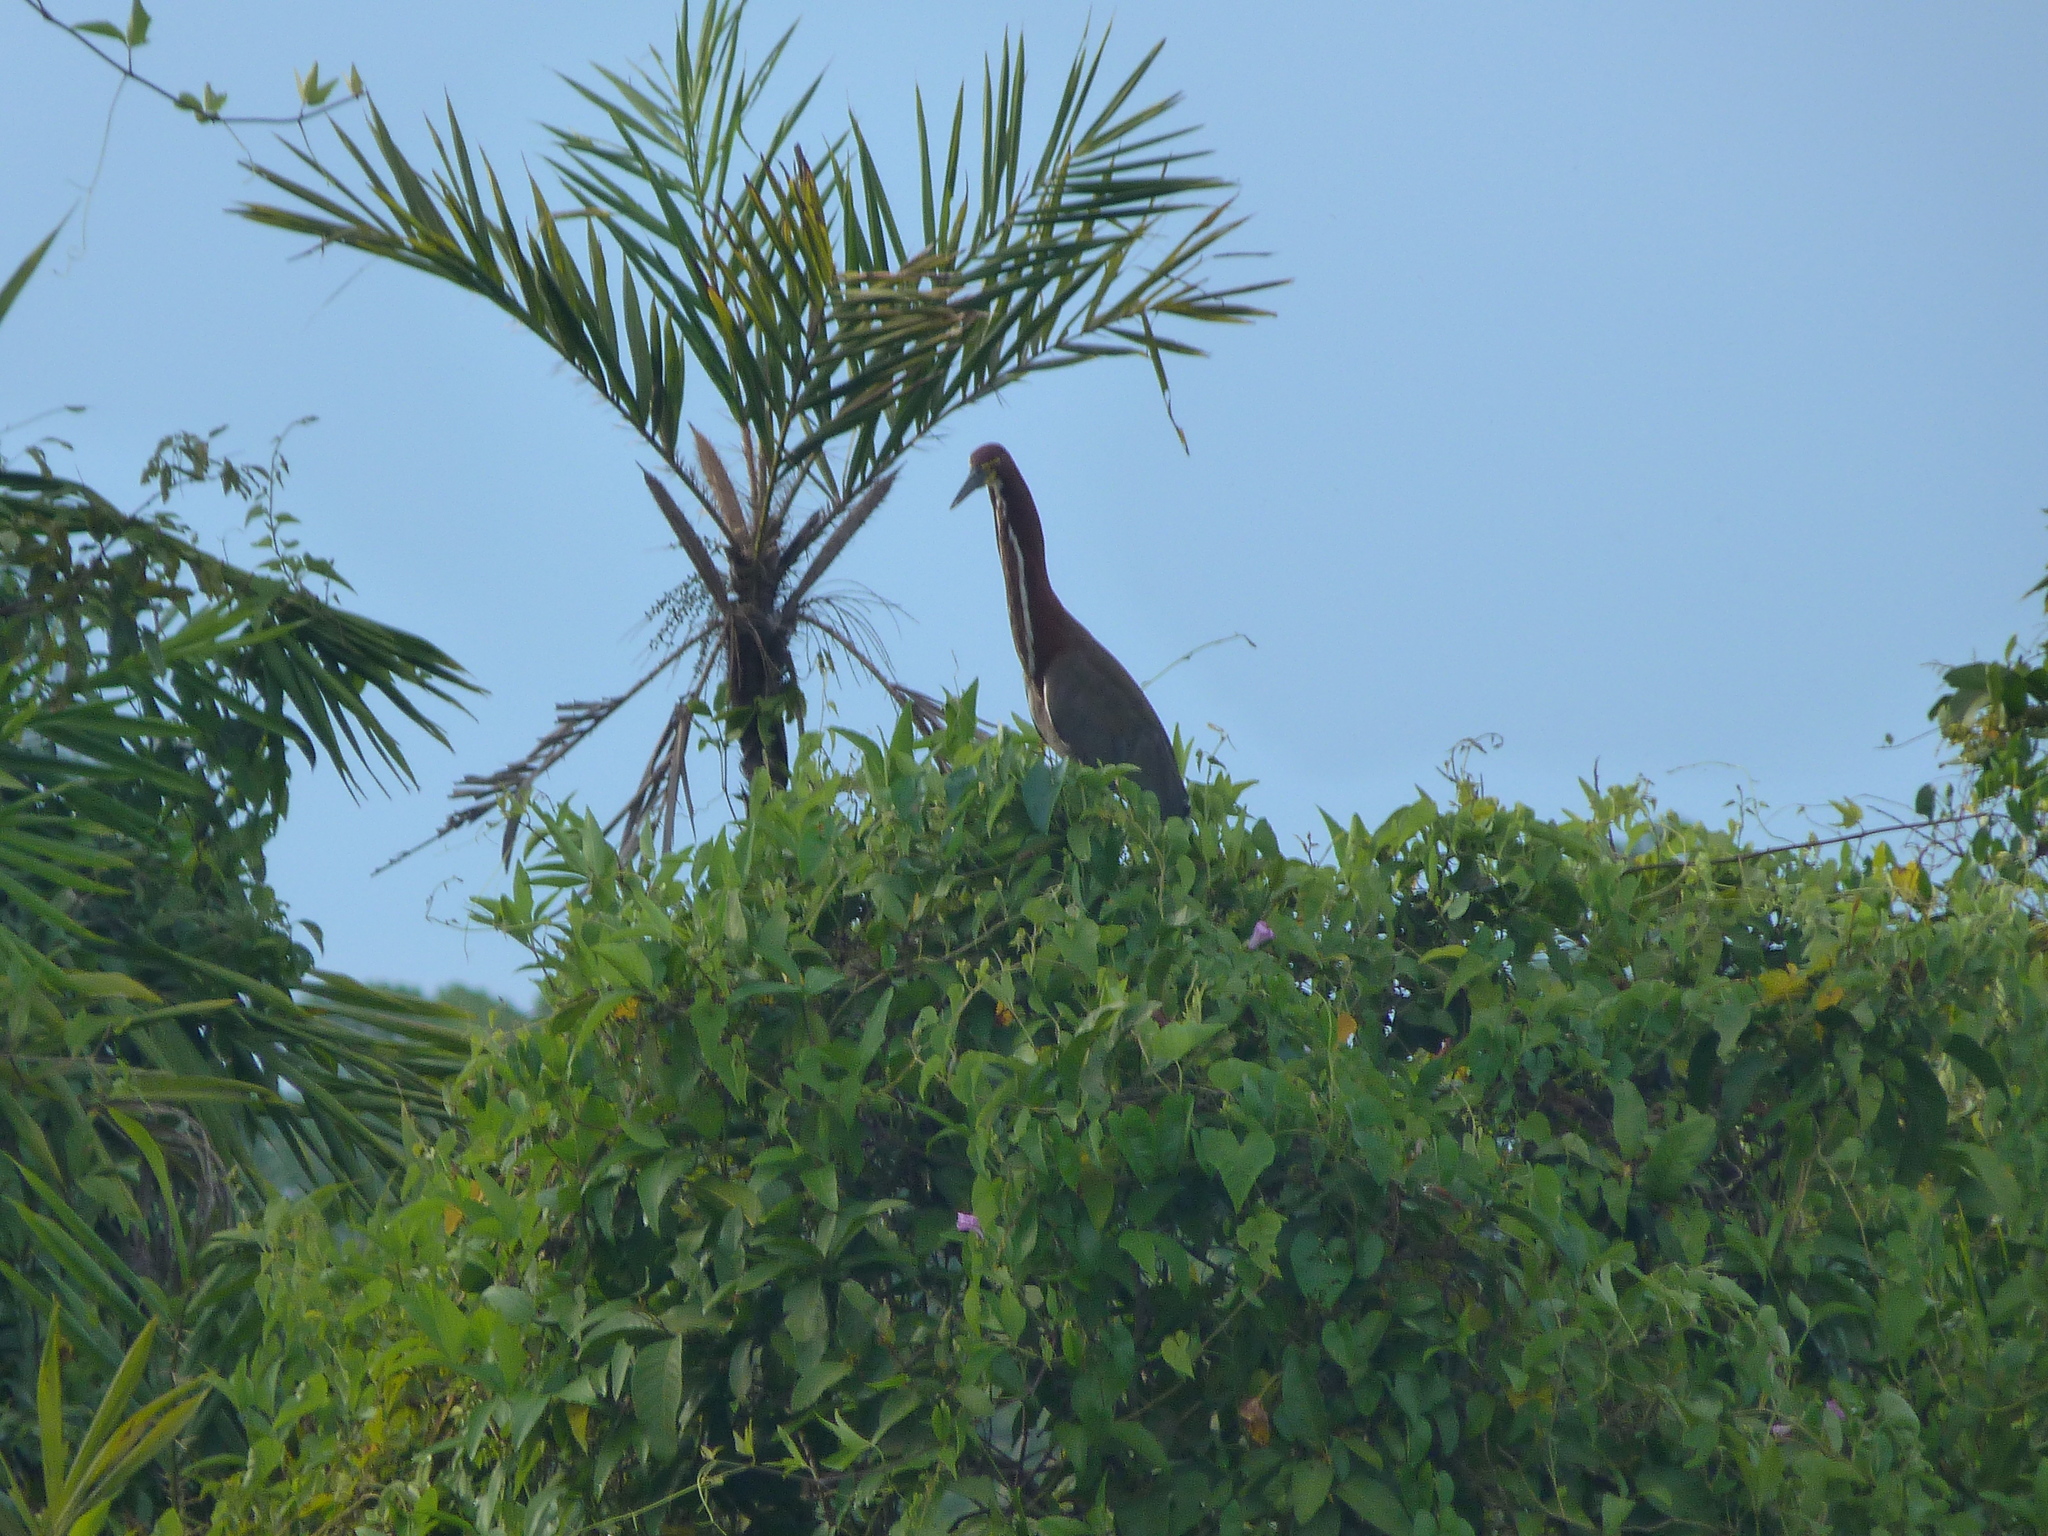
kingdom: Animalia
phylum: Chordata
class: Aves
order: Pelecaniformes
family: Ardeidae
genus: Tigrisoma
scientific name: Tigrisoma lineatum
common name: Rufescent tiger-heron
